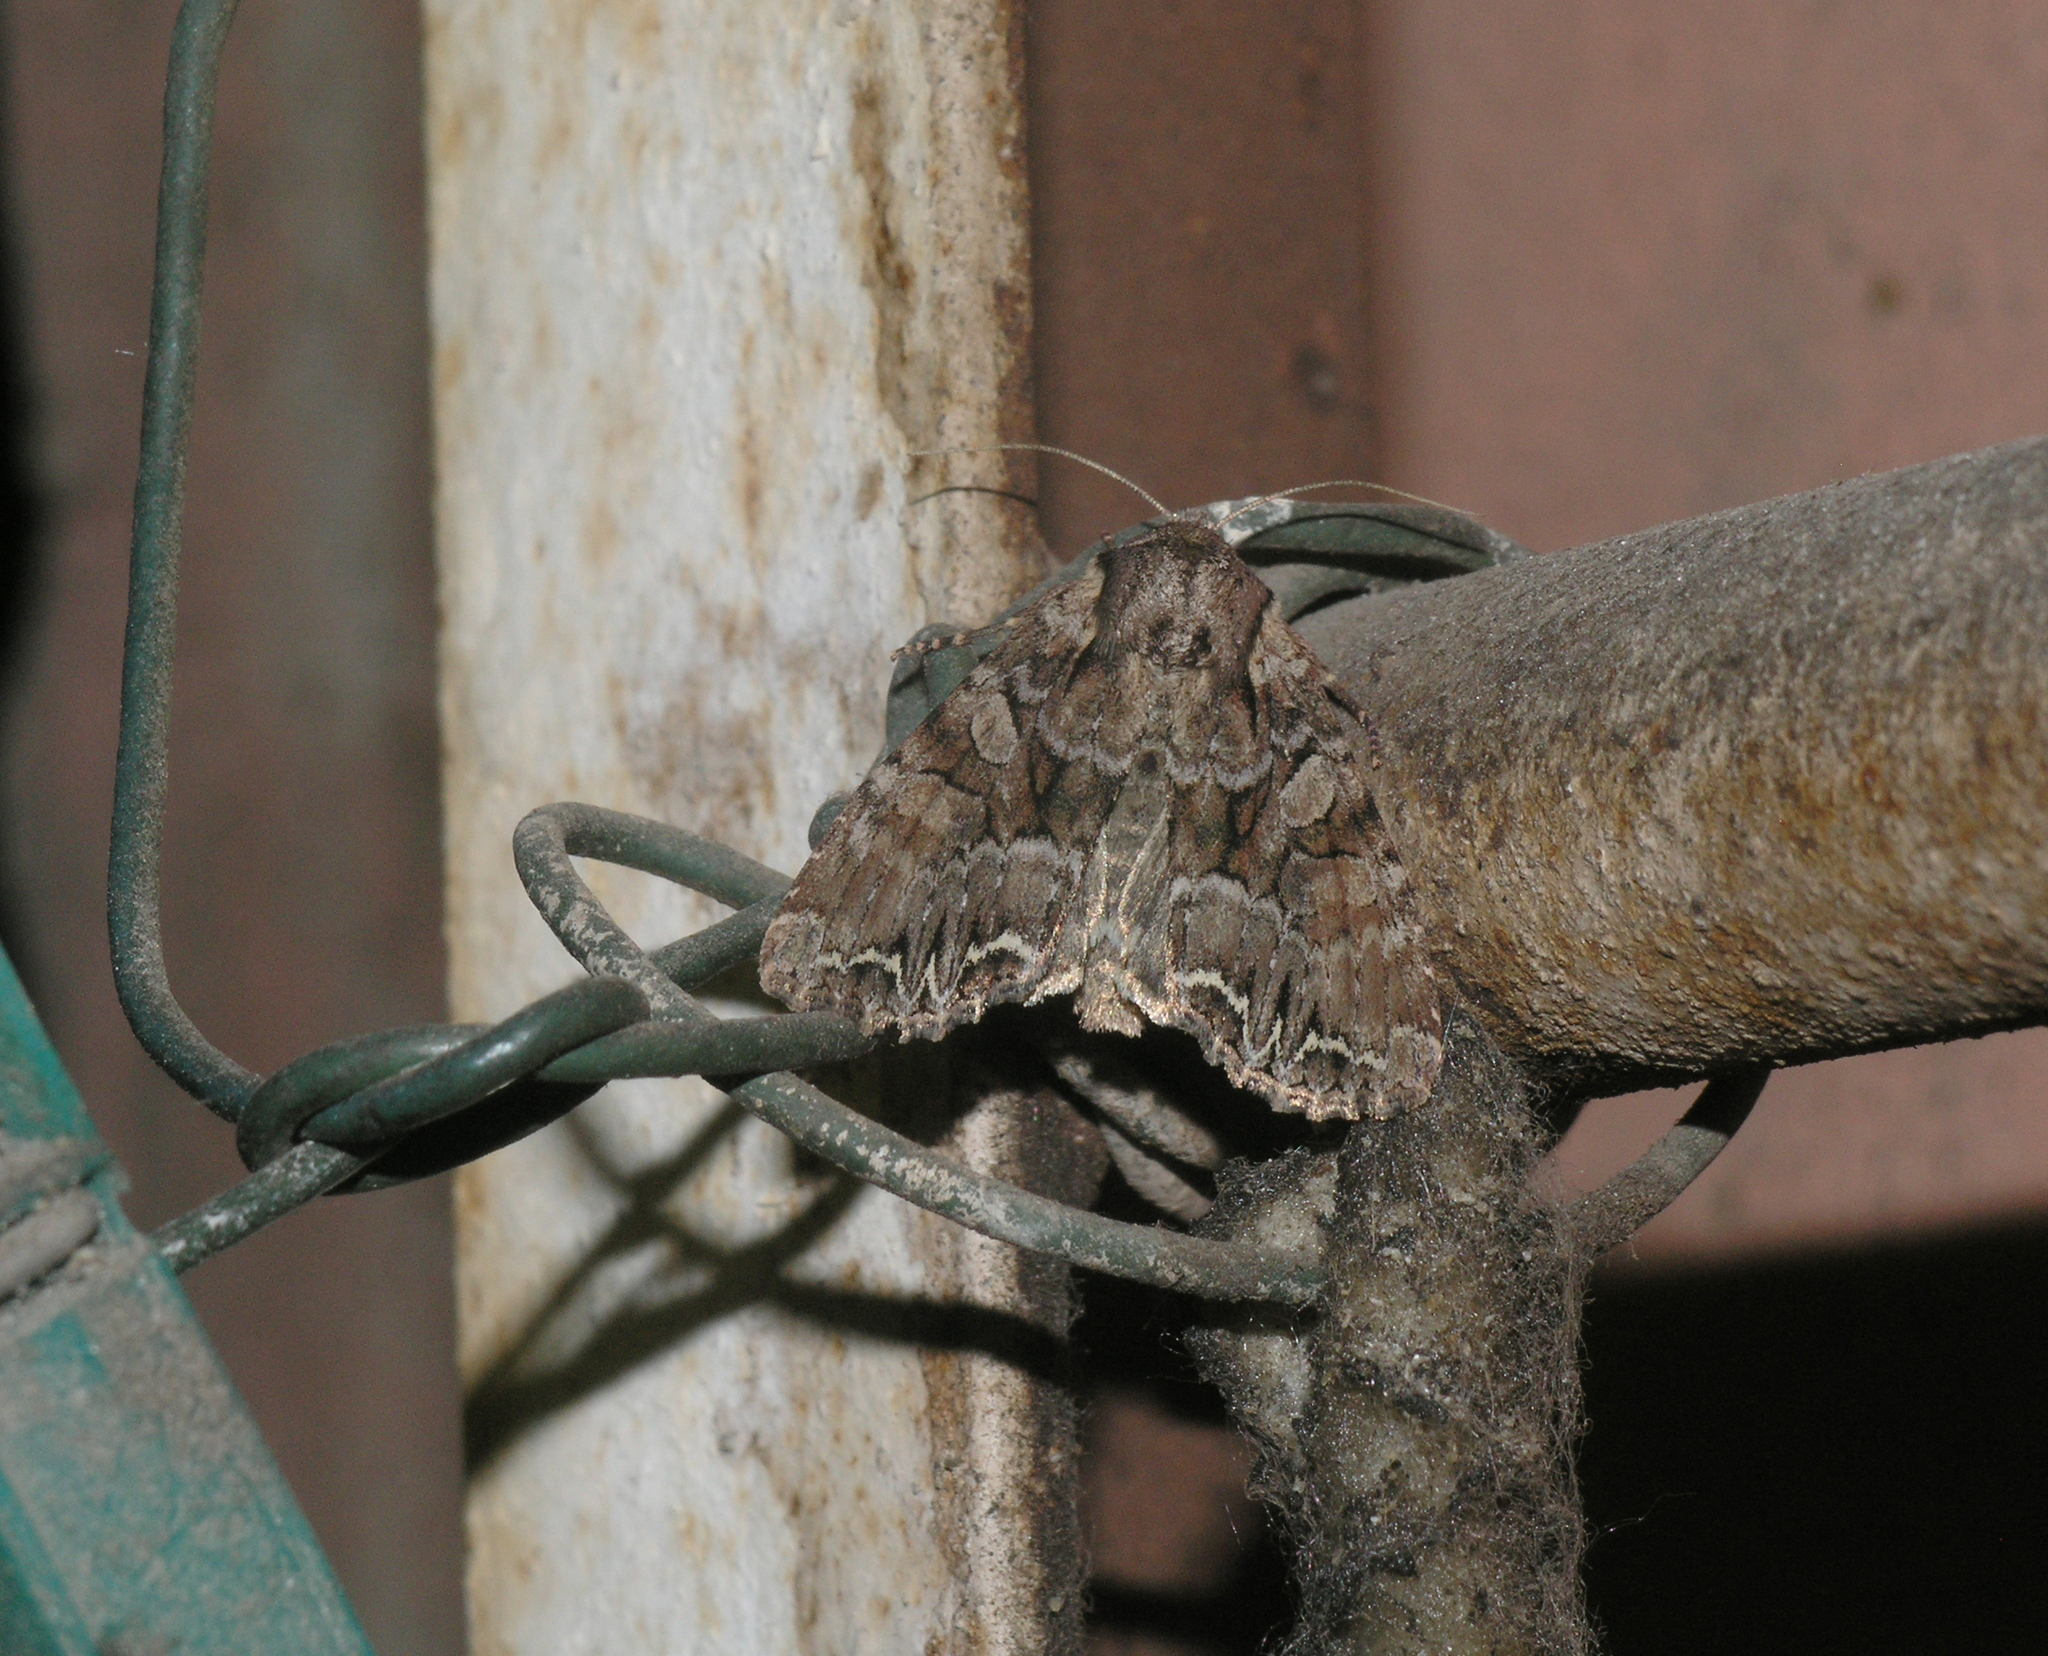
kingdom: Animalia
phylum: Arthropoda
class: Insecta
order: Lepidoptera
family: Noctuidae
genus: Lacanobia
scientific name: Lacanobia thalassina
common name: Pale-shouldered brocade
